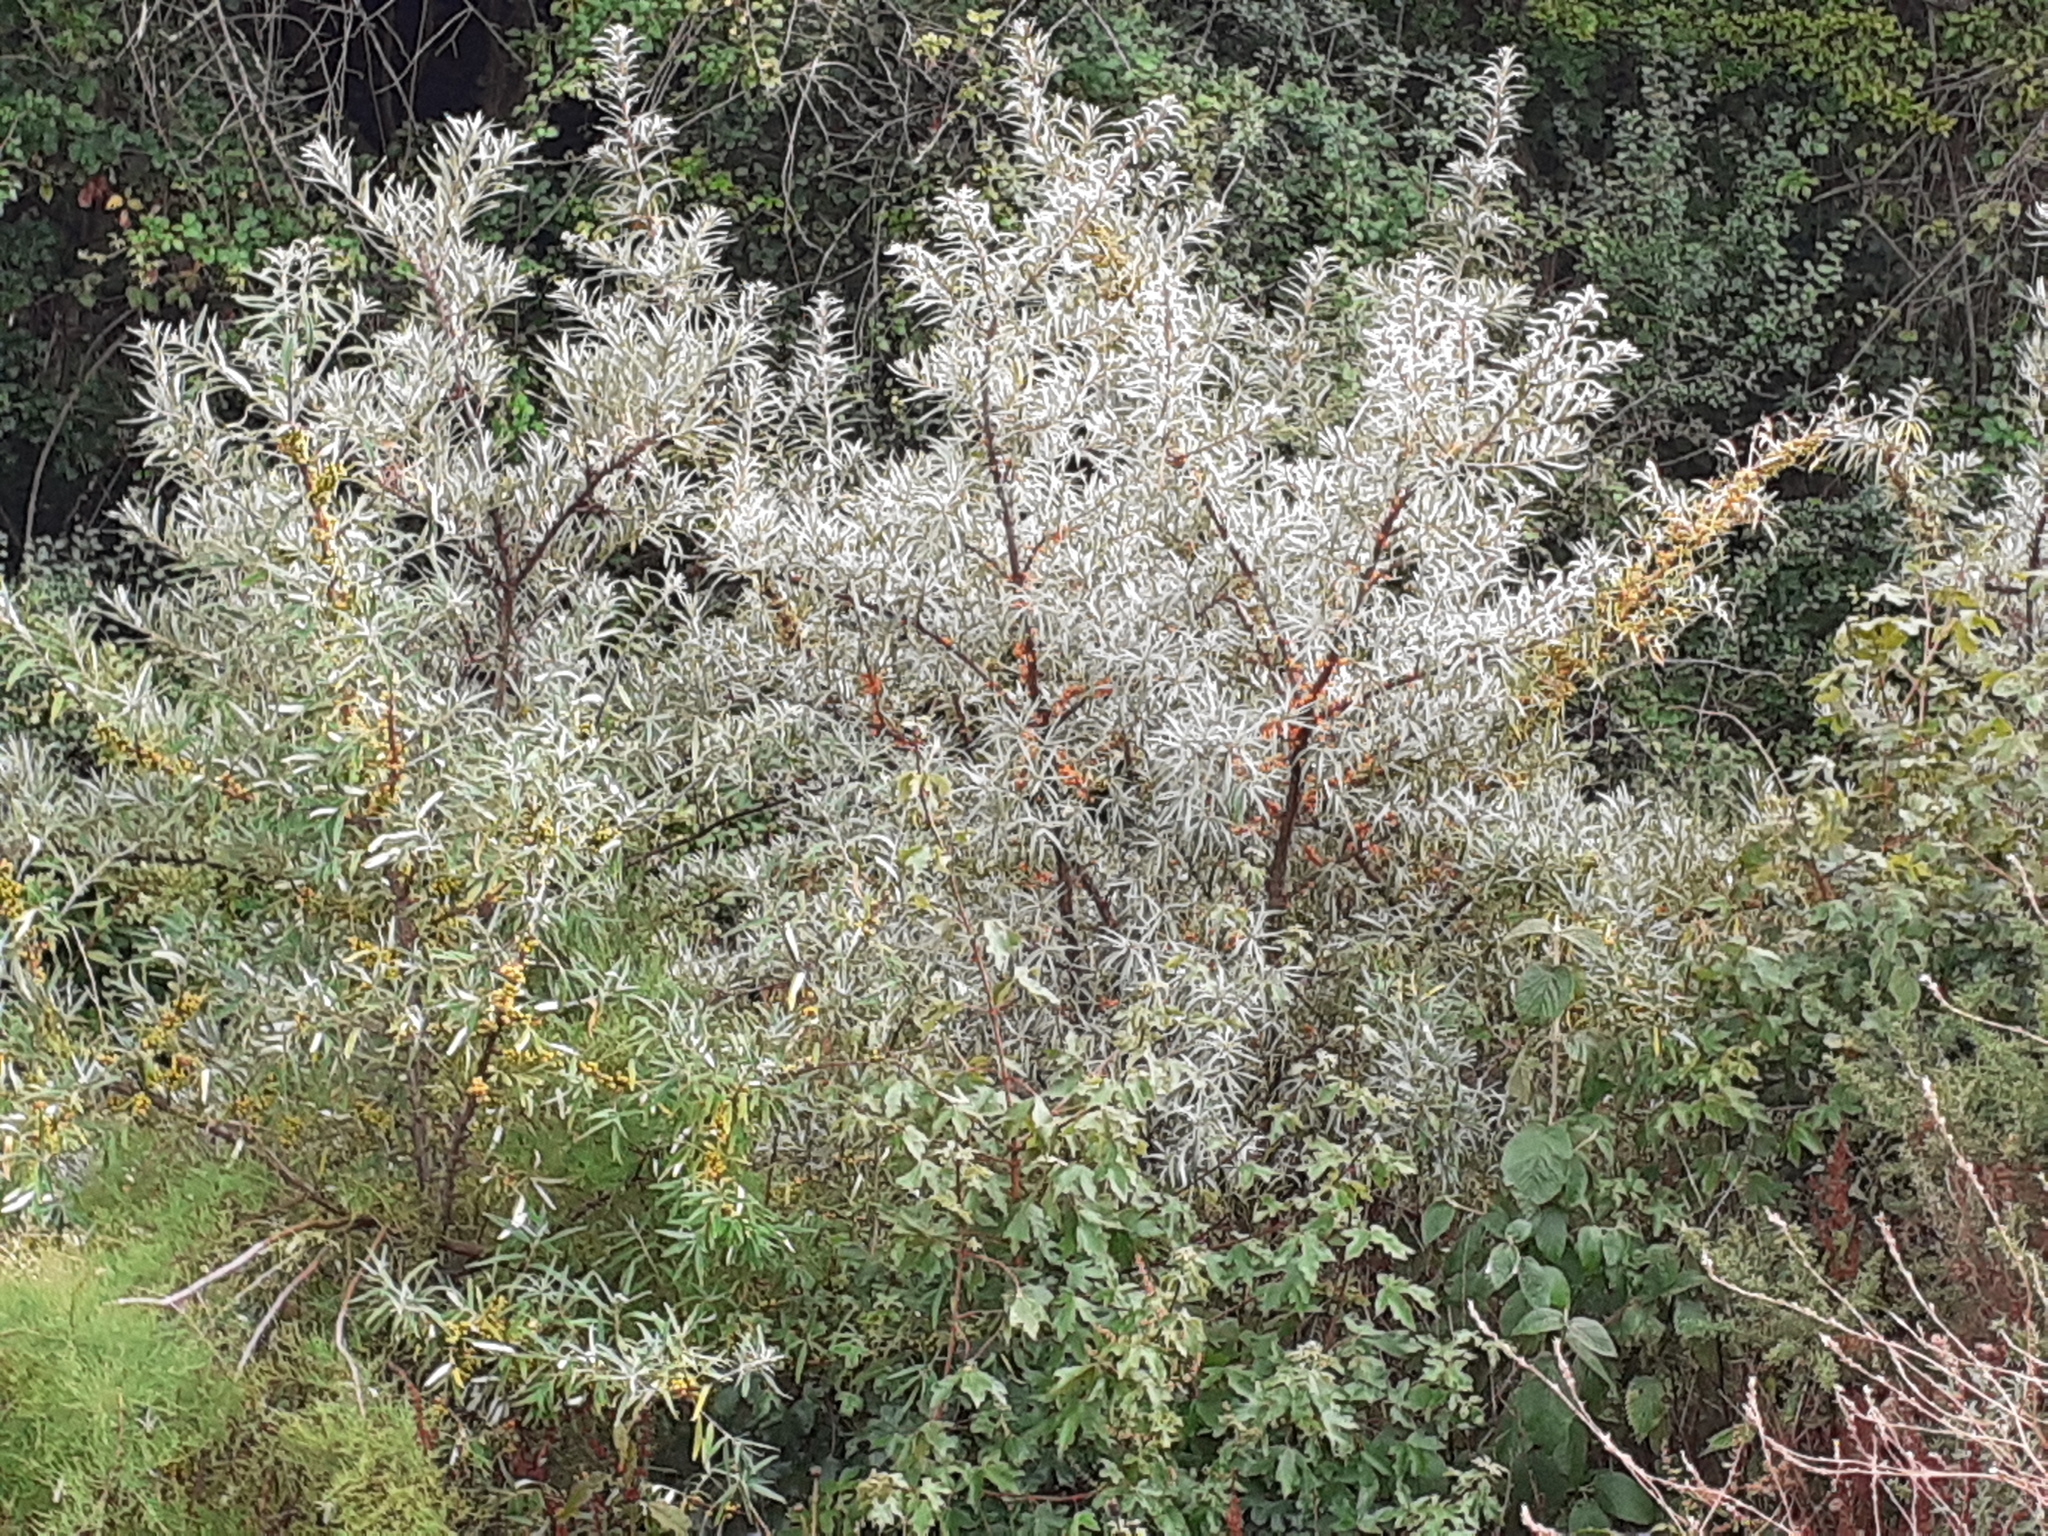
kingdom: Plantae
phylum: Tracheophyta
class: Magnoliopsida
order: Rosales
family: Elaeagnaceae
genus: Hippophae
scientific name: Hippophae rhamnoides
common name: Sea-buckthorn
